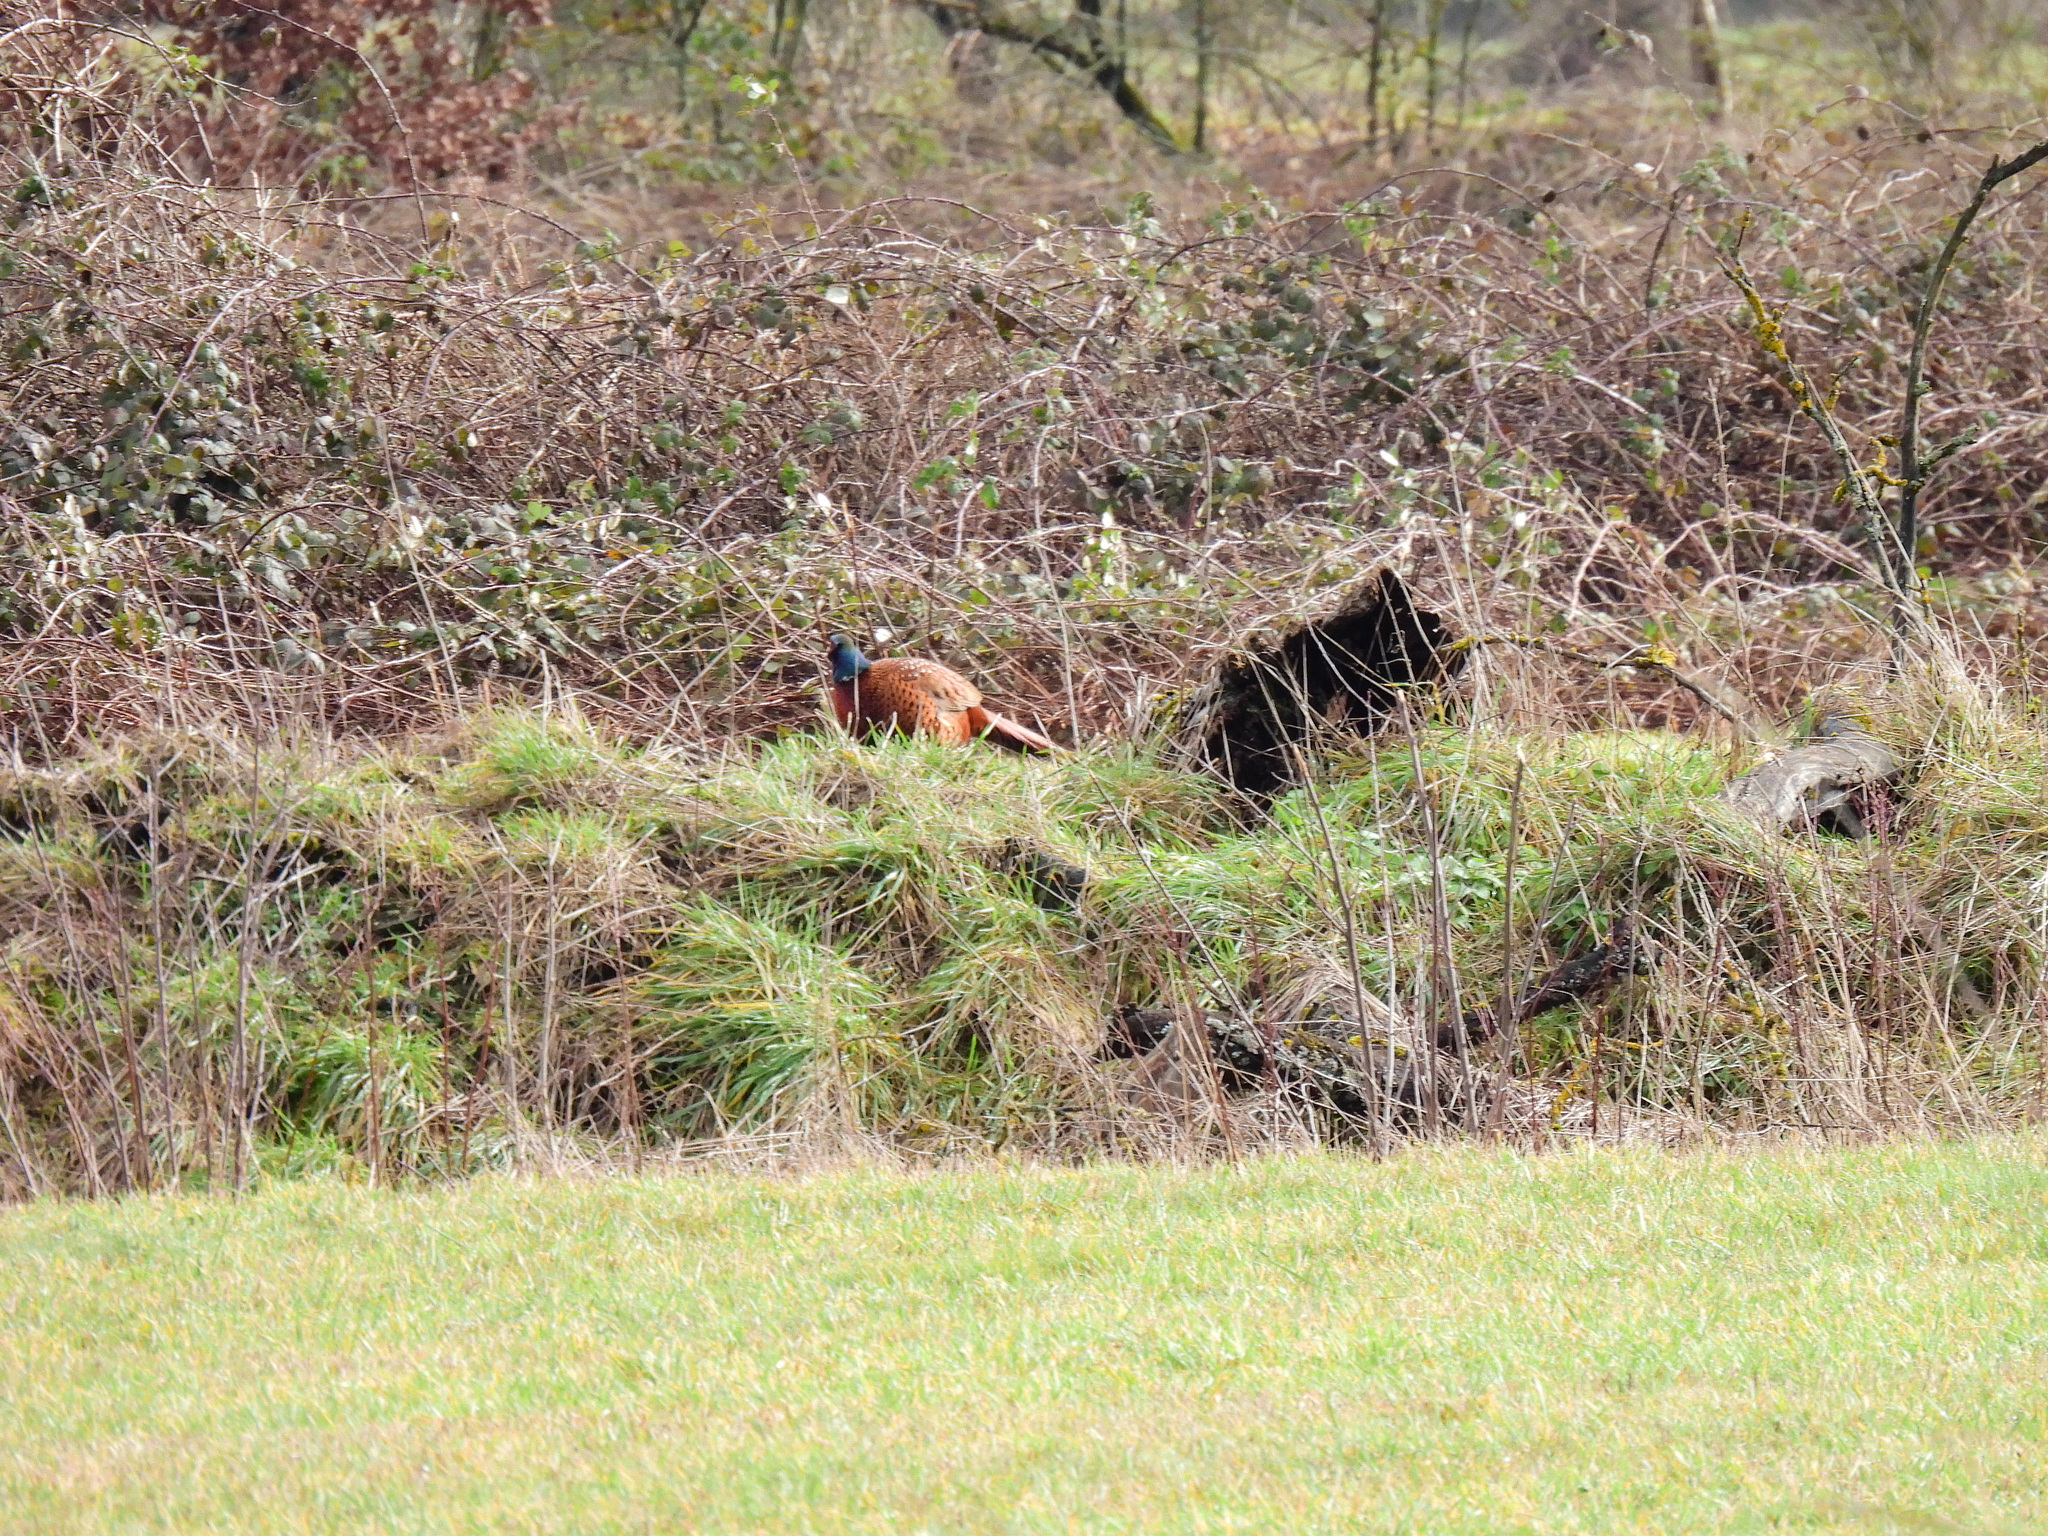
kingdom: Animalia
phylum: Chordata
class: Aves
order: Galliformes
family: Phasianidae
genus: Phasianus
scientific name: Phasianus colchicus
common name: Common pheasant
